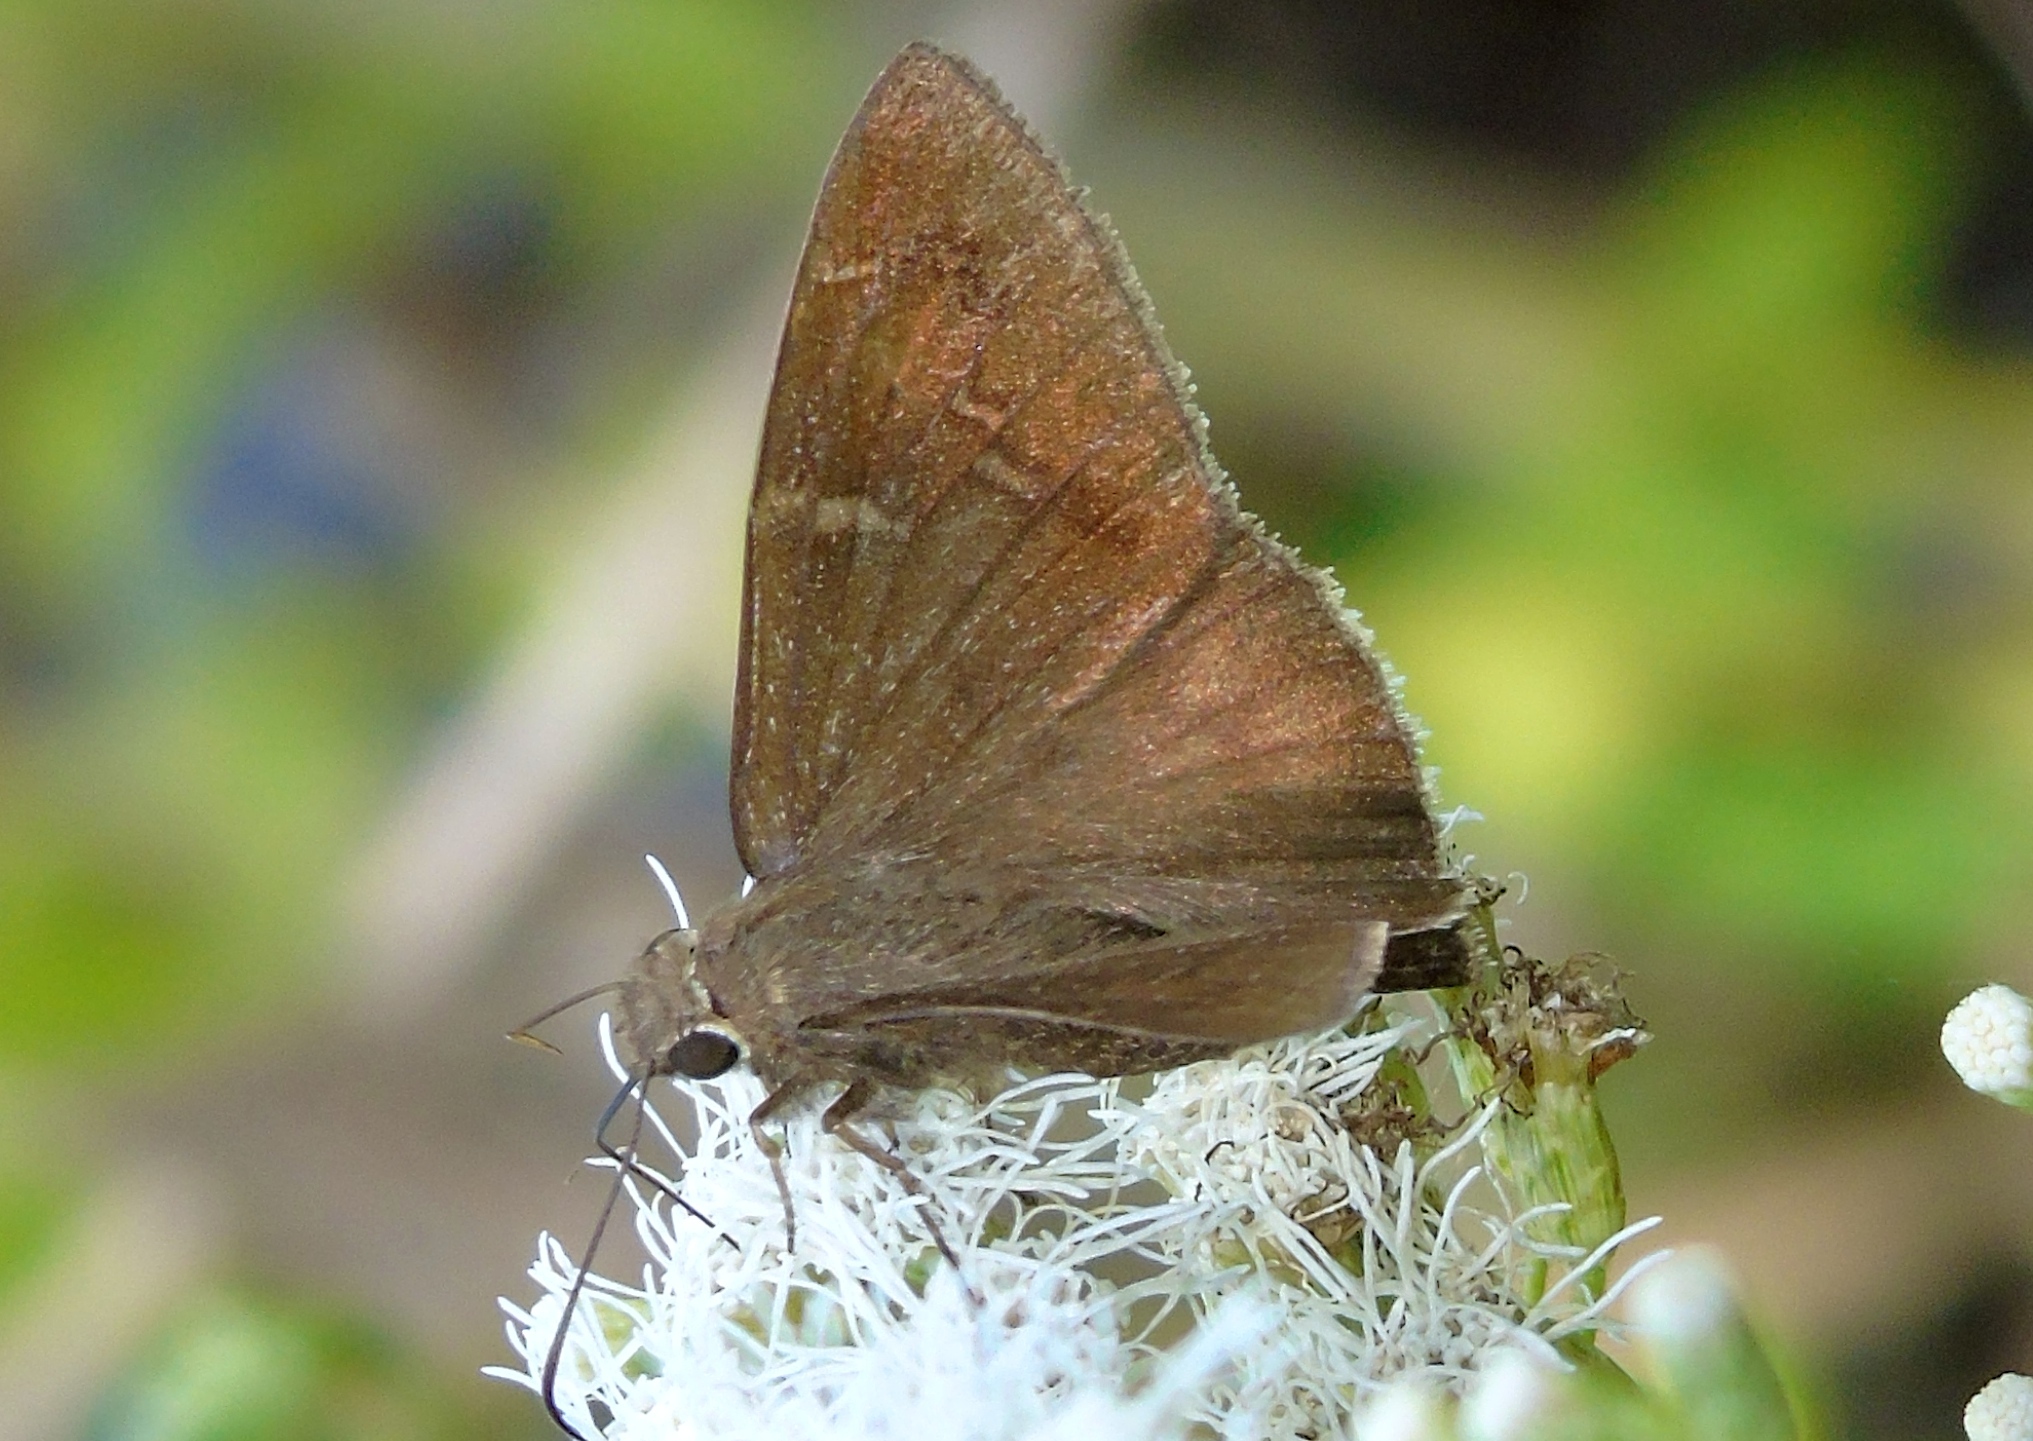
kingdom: Animalia
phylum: Arthropoda
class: Insecta
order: Lepidoptera
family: Hesperiidae
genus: Achalarus
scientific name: Achalarus Murgaria albociliatus
